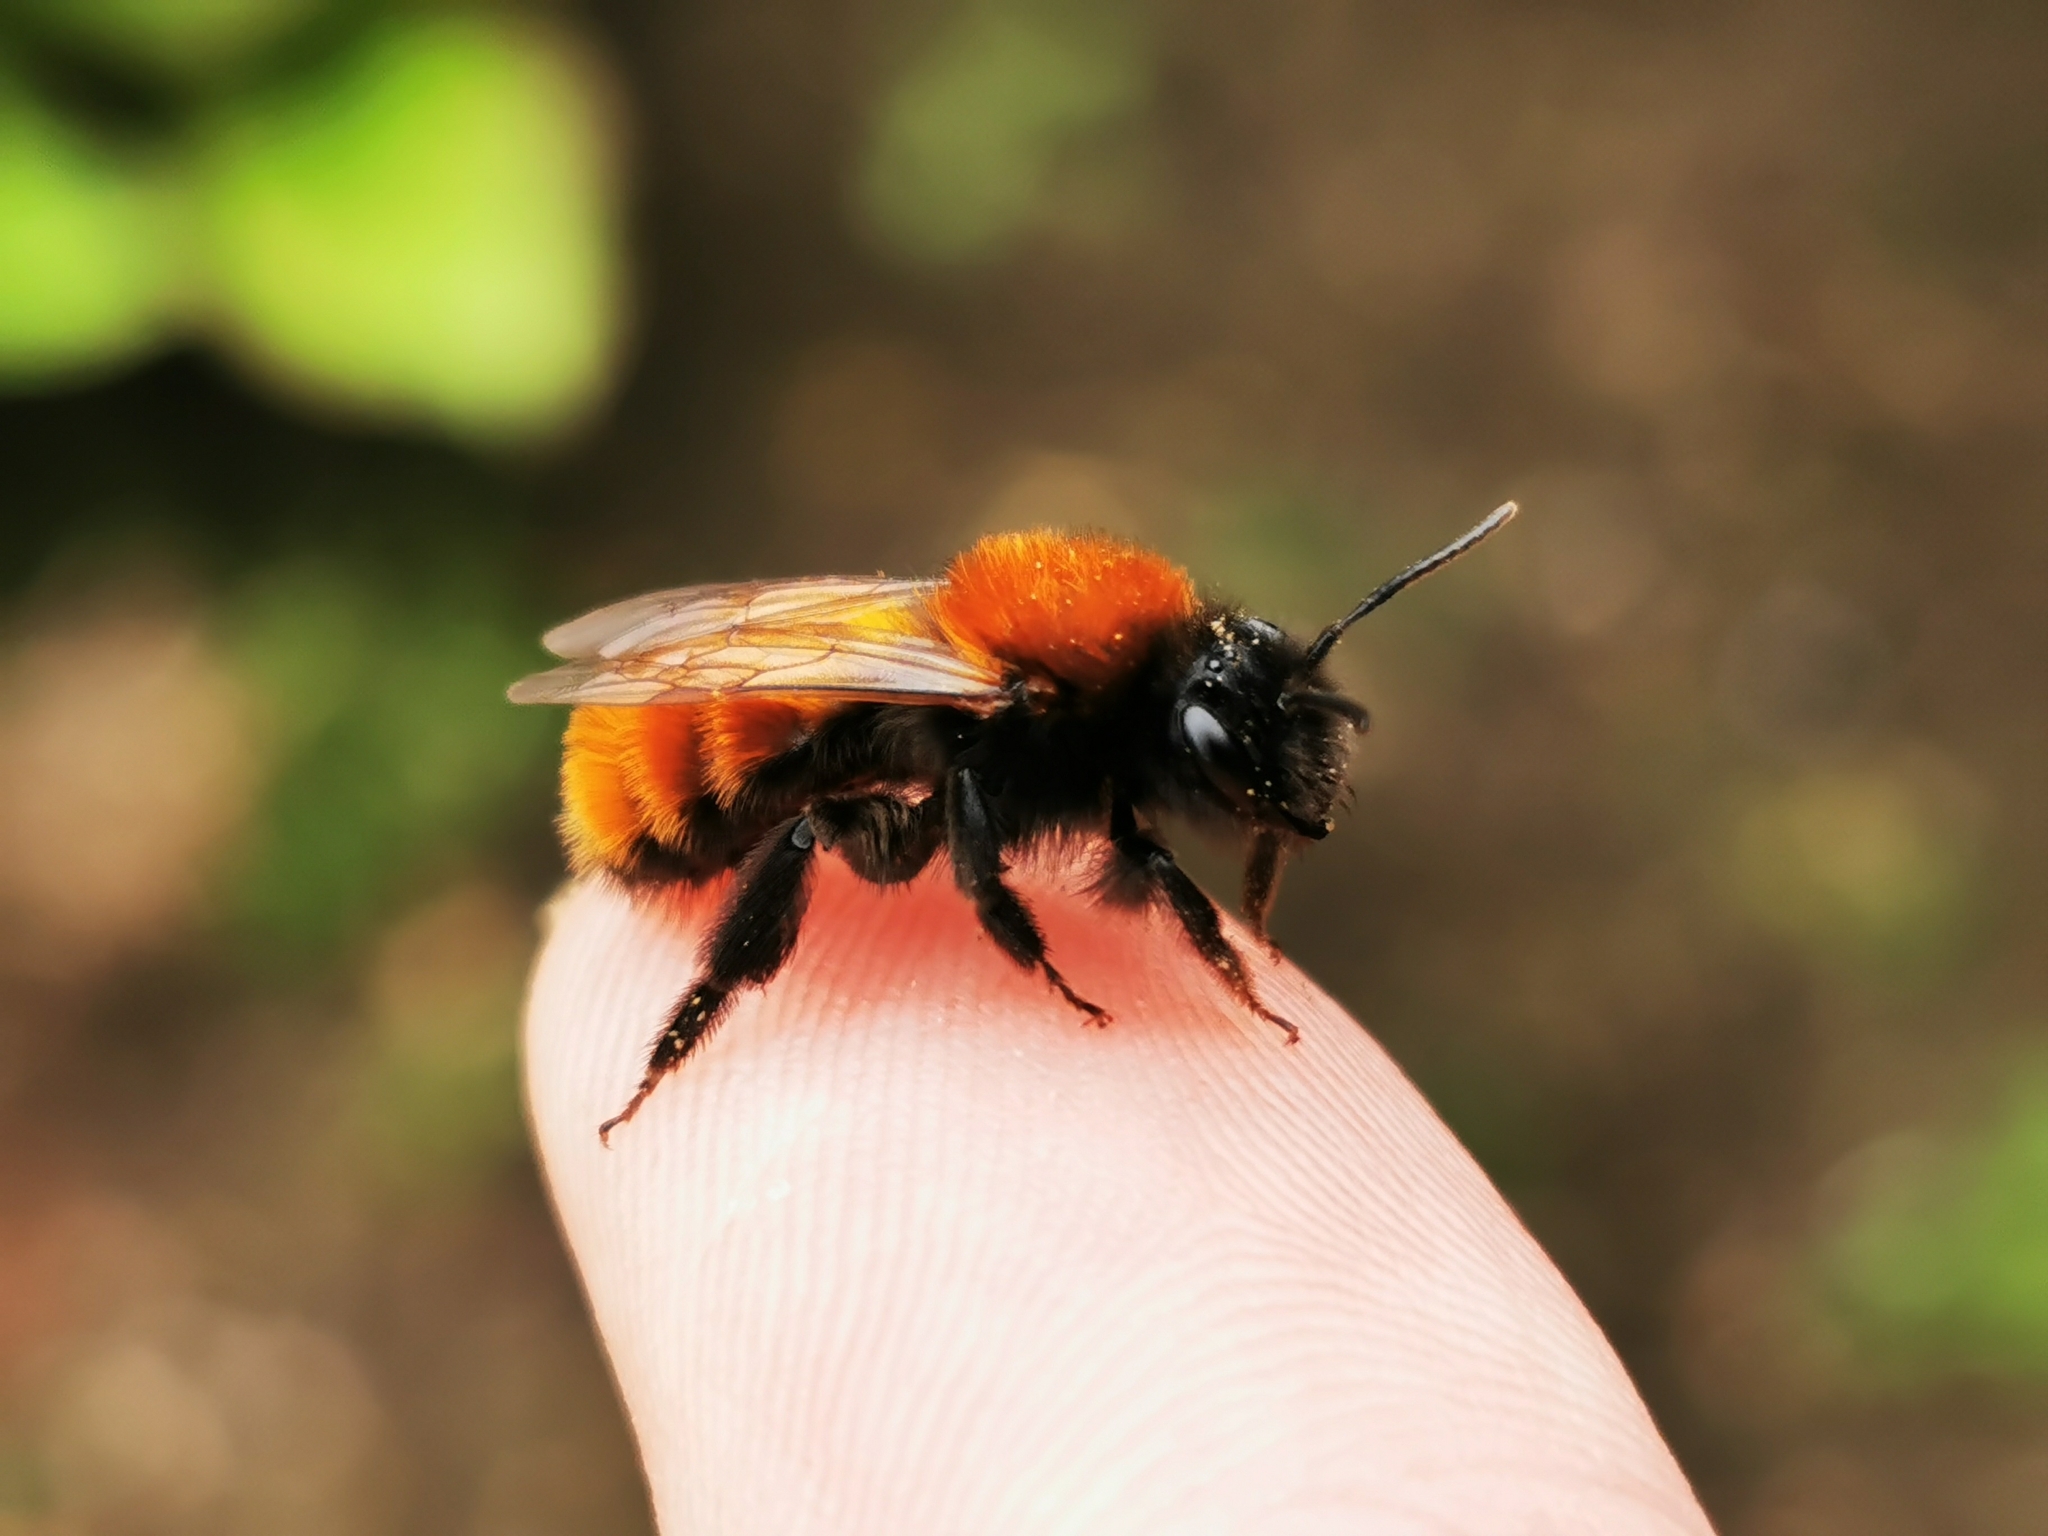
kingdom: Animalia
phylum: Arthropoda
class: Insecta
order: Hymenoptera
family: Andrenidae
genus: Andrena
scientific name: Andrena fulva
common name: Tawny mining bee
